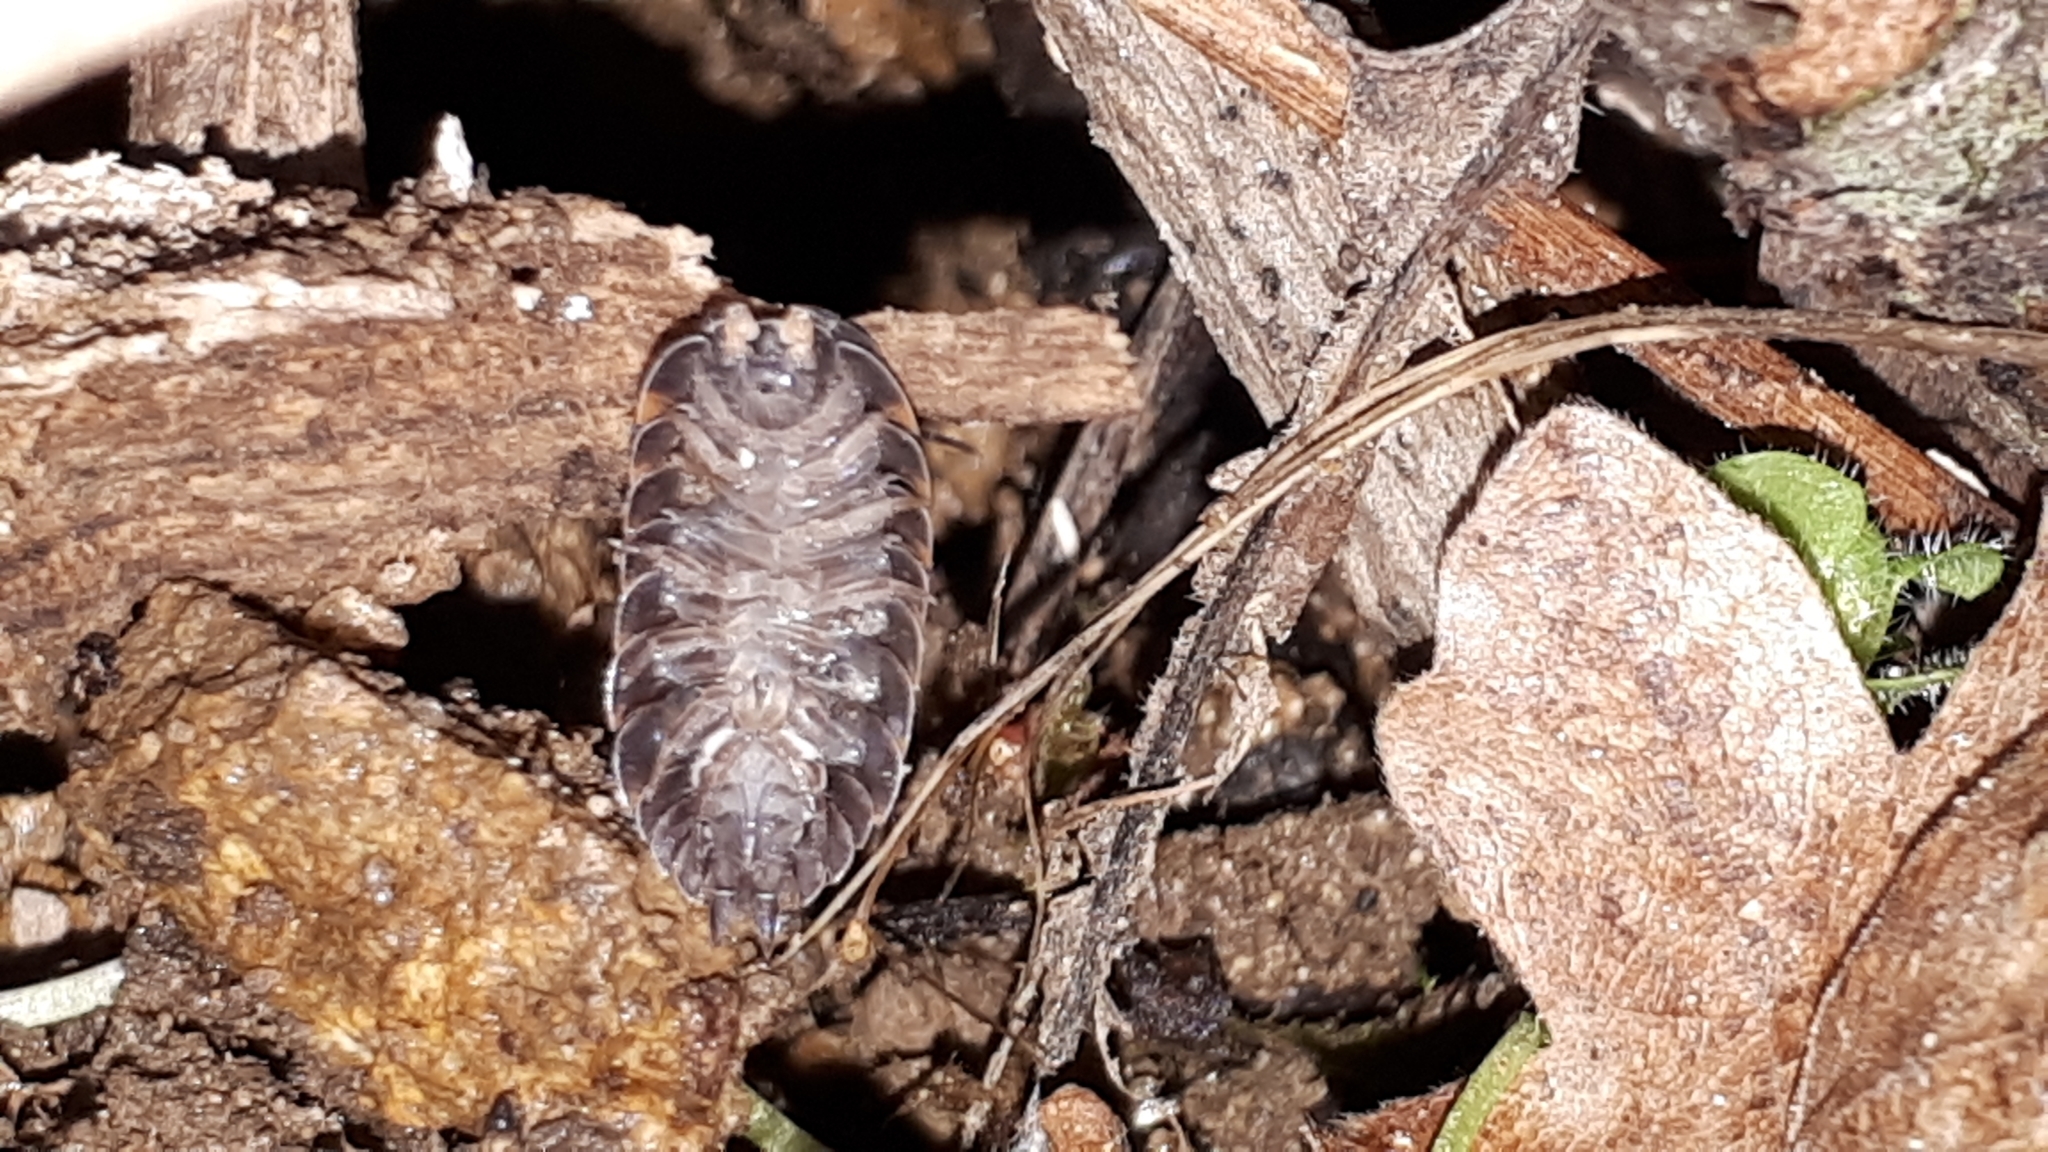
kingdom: Animalia
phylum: Arthropoda
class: Malacostraca
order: Isopoda
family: Trachelipodidae
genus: Trachelipus
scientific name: Trachelipus ratzeburgii
